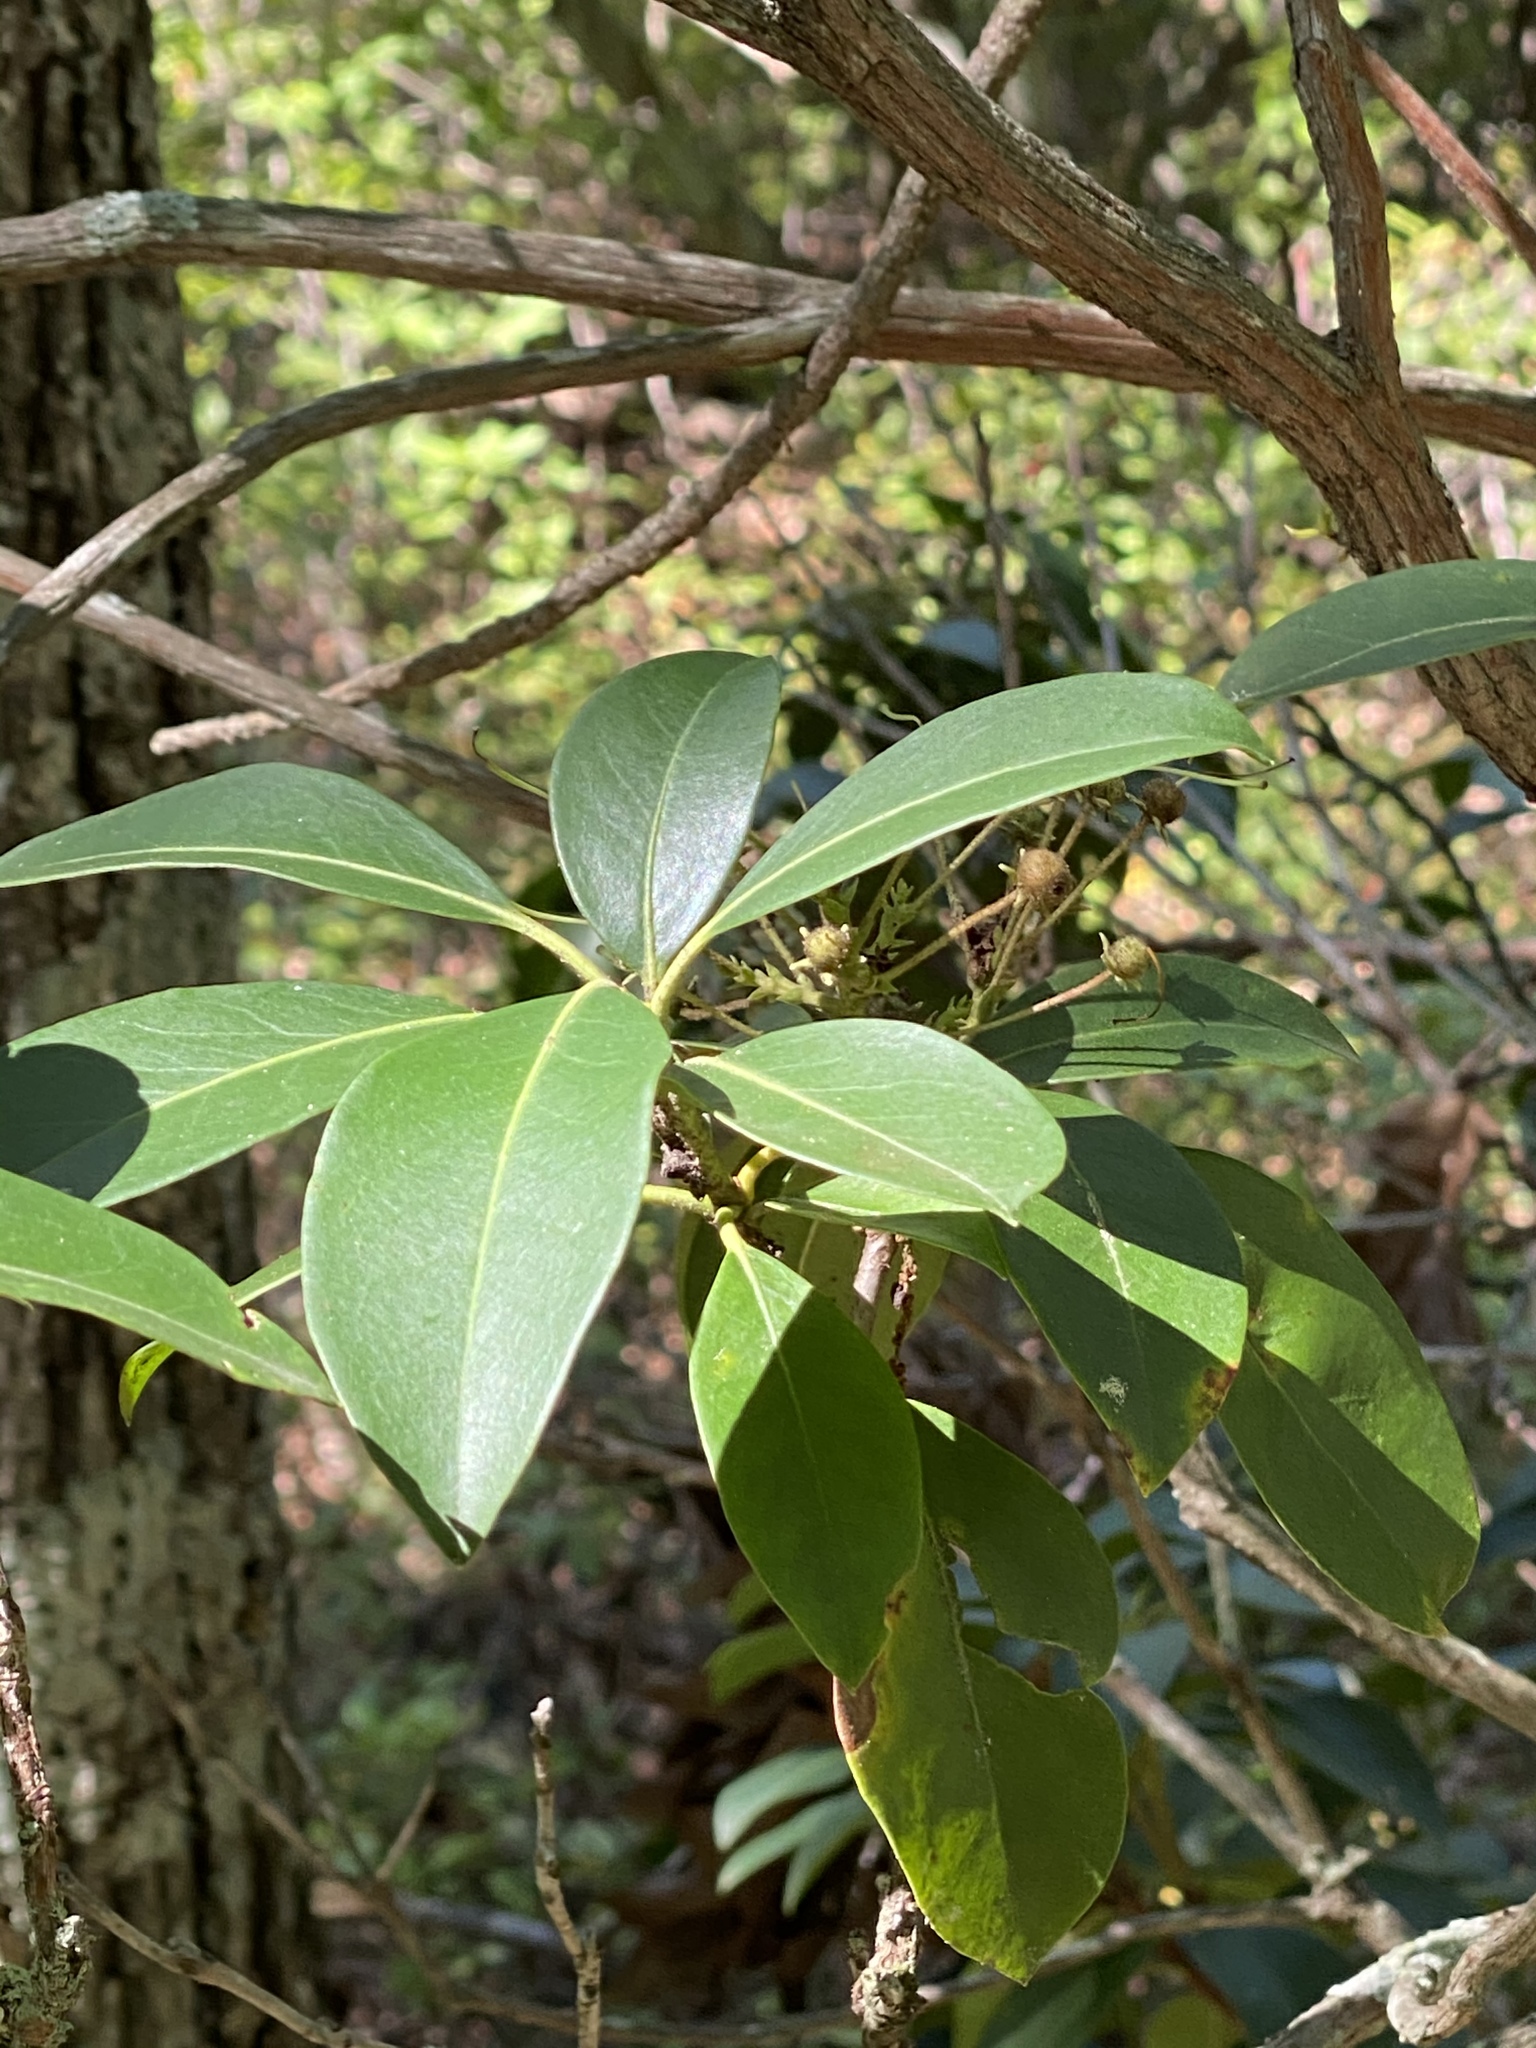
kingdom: Plantae
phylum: Tracheophyta
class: Magnoliopsida
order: Ericales
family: Ericaceae
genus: Kalmia
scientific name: Kalmia latifolia
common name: Mountain-laurel
